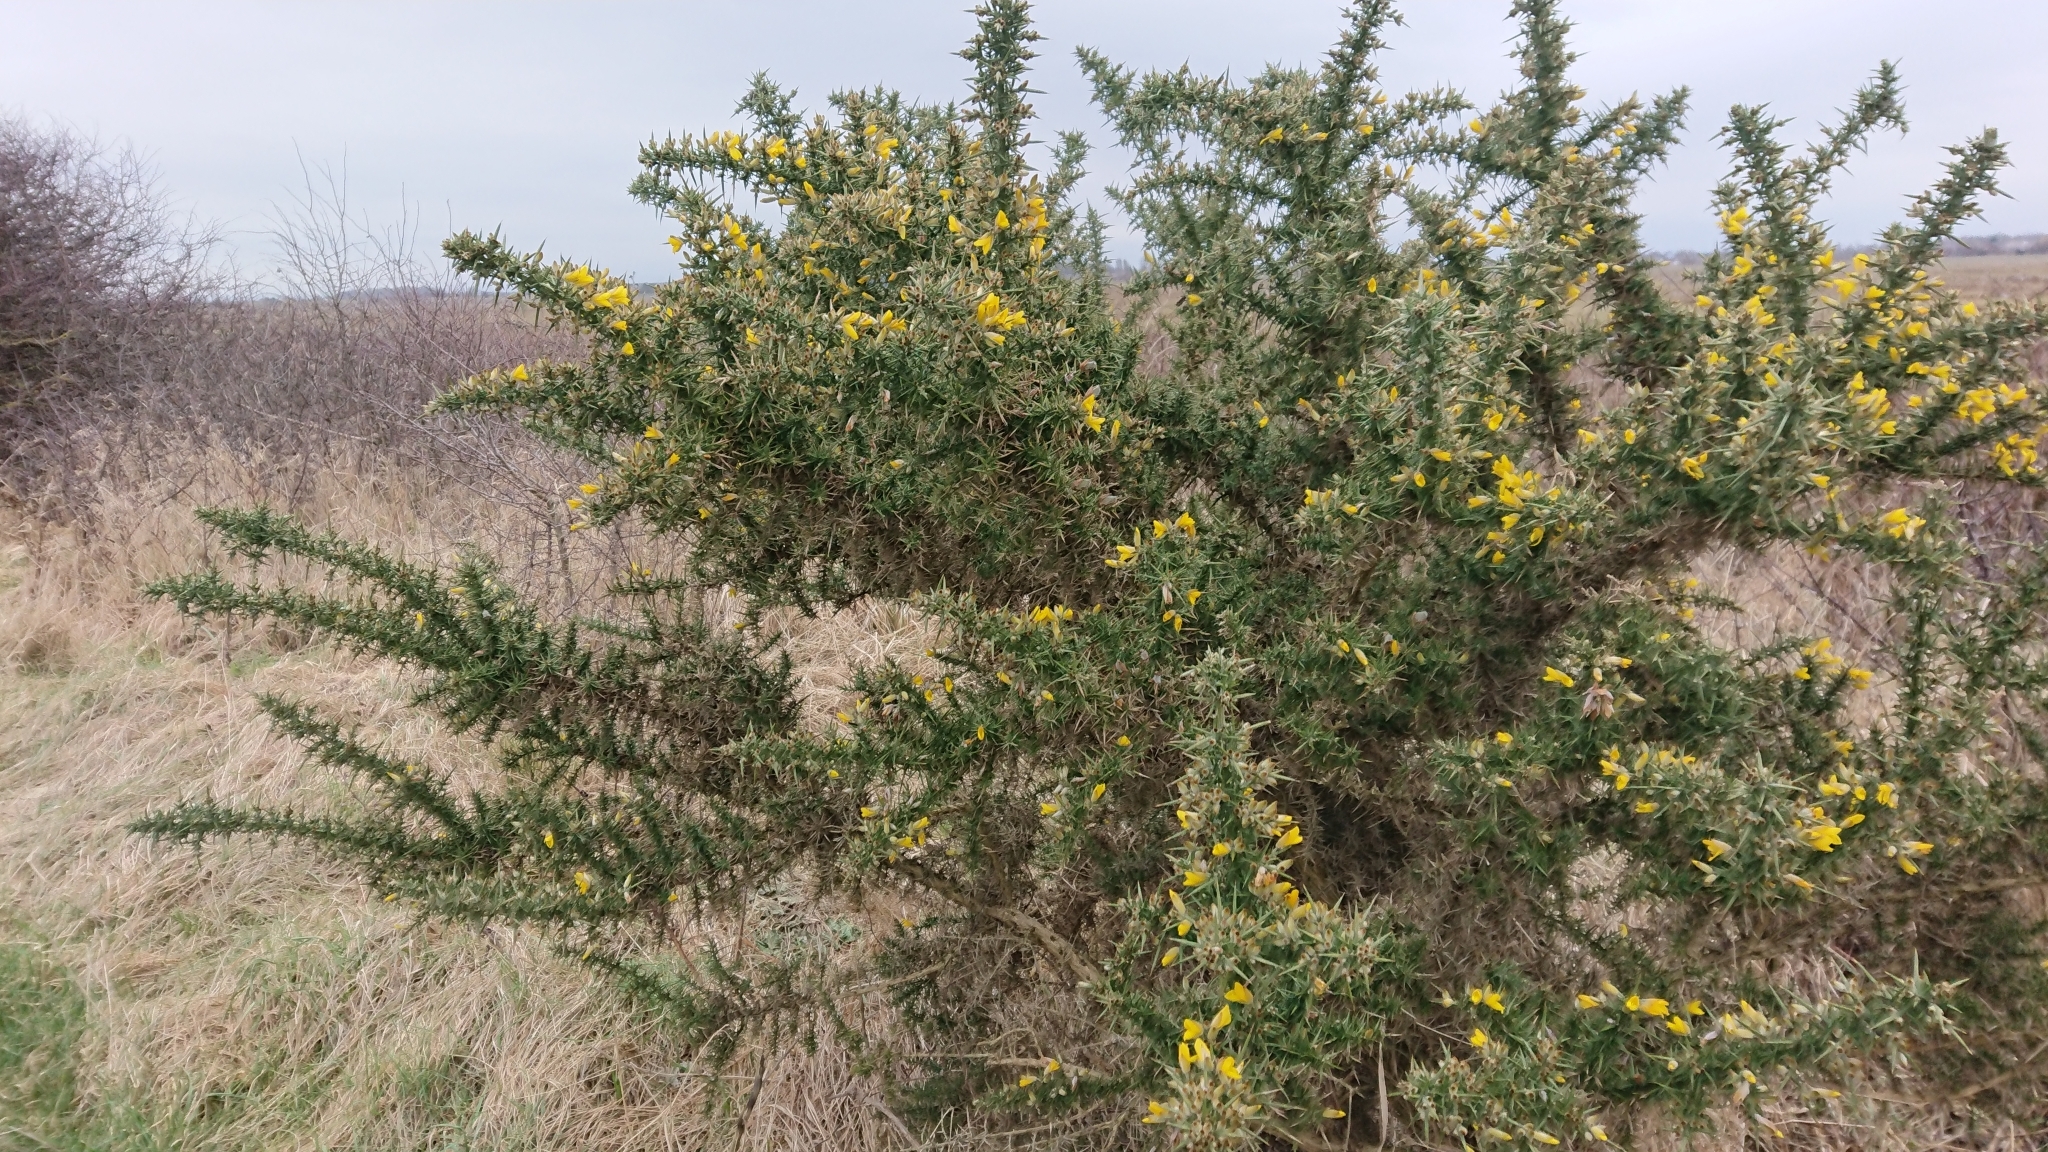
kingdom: Plantae
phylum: Tracheophyta
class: Magnoliopsida
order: Fabales
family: Fabaceae
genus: Ulex
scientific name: Ulex europaeus
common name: Common gorse
